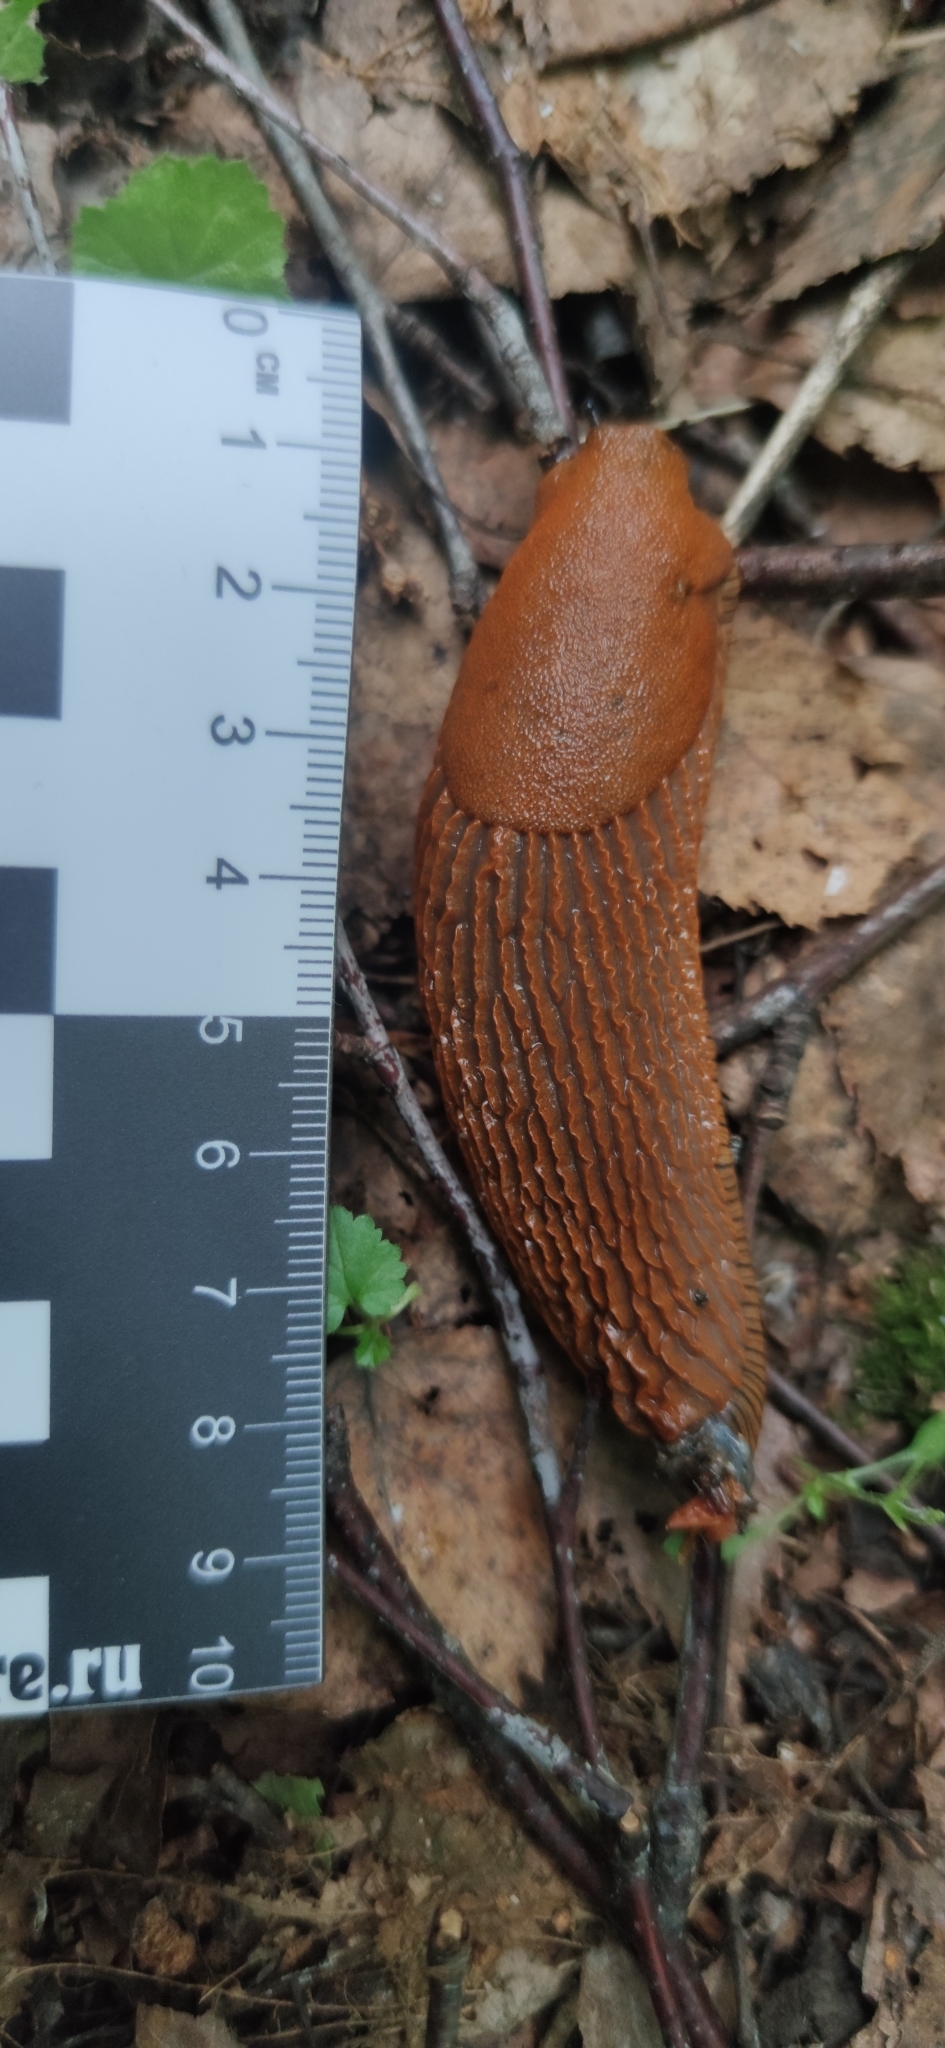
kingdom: Animalia
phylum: Mollusca
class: Gastropoda
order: Stylommatophora
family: Arionidae
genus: Arion
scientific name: Arion
